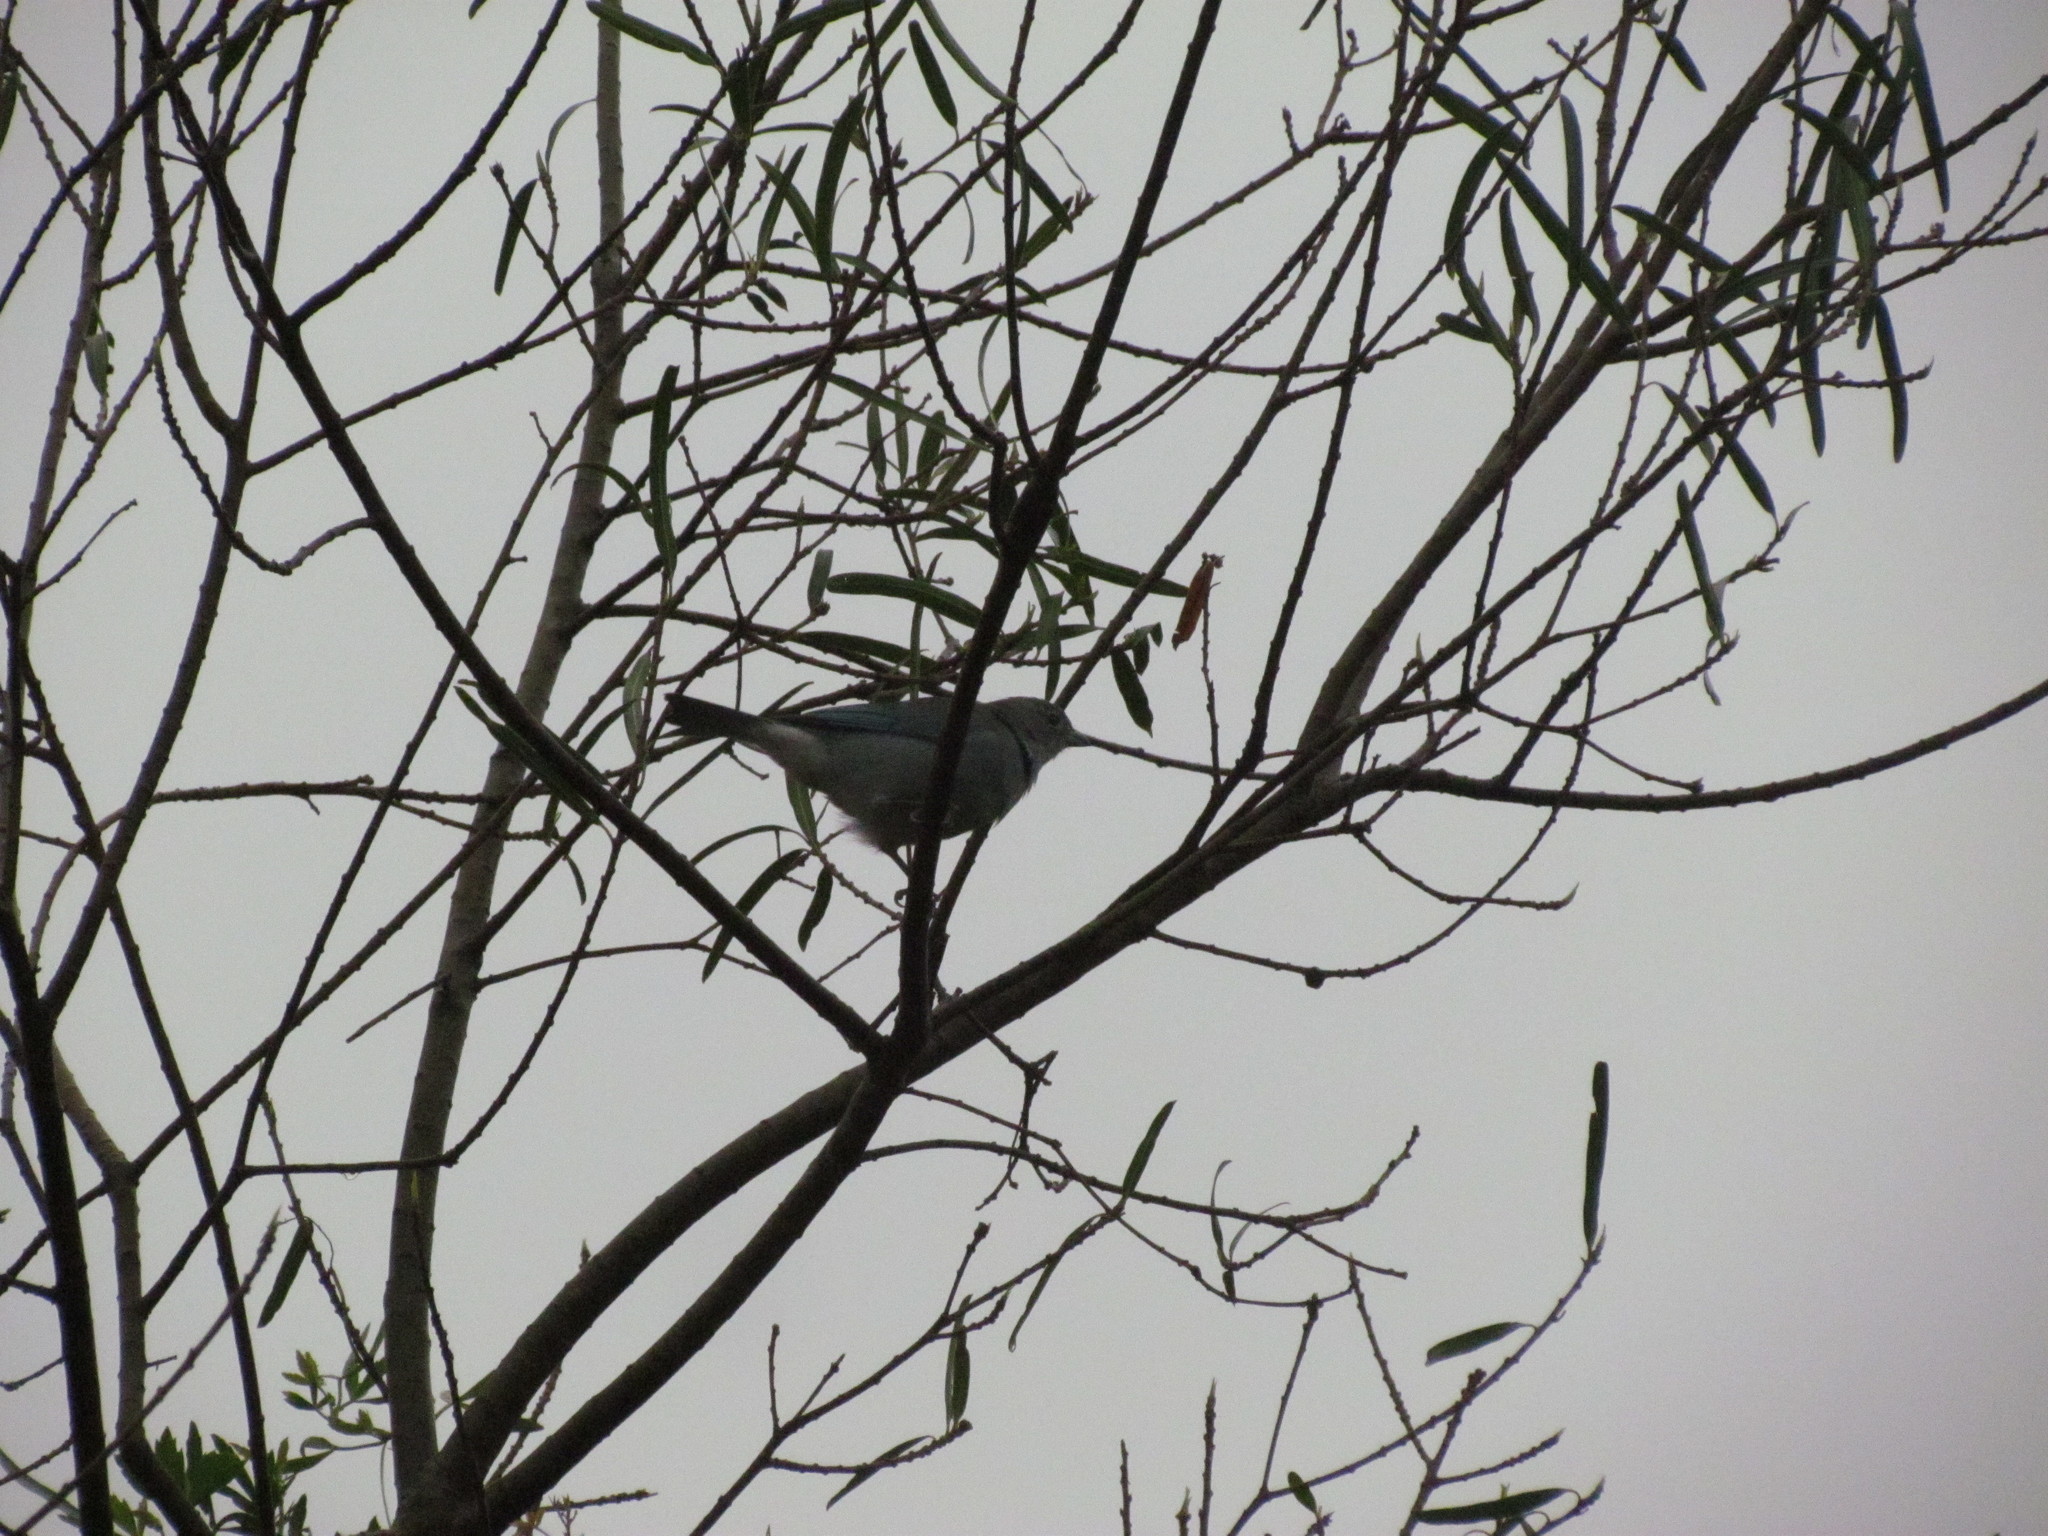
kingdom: Animalia
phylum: Chordata
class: Aves
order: Passeriformes
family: Thraupidae
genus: Thraupis
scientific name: Thraupis sayaca
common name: Sayaca tanager
